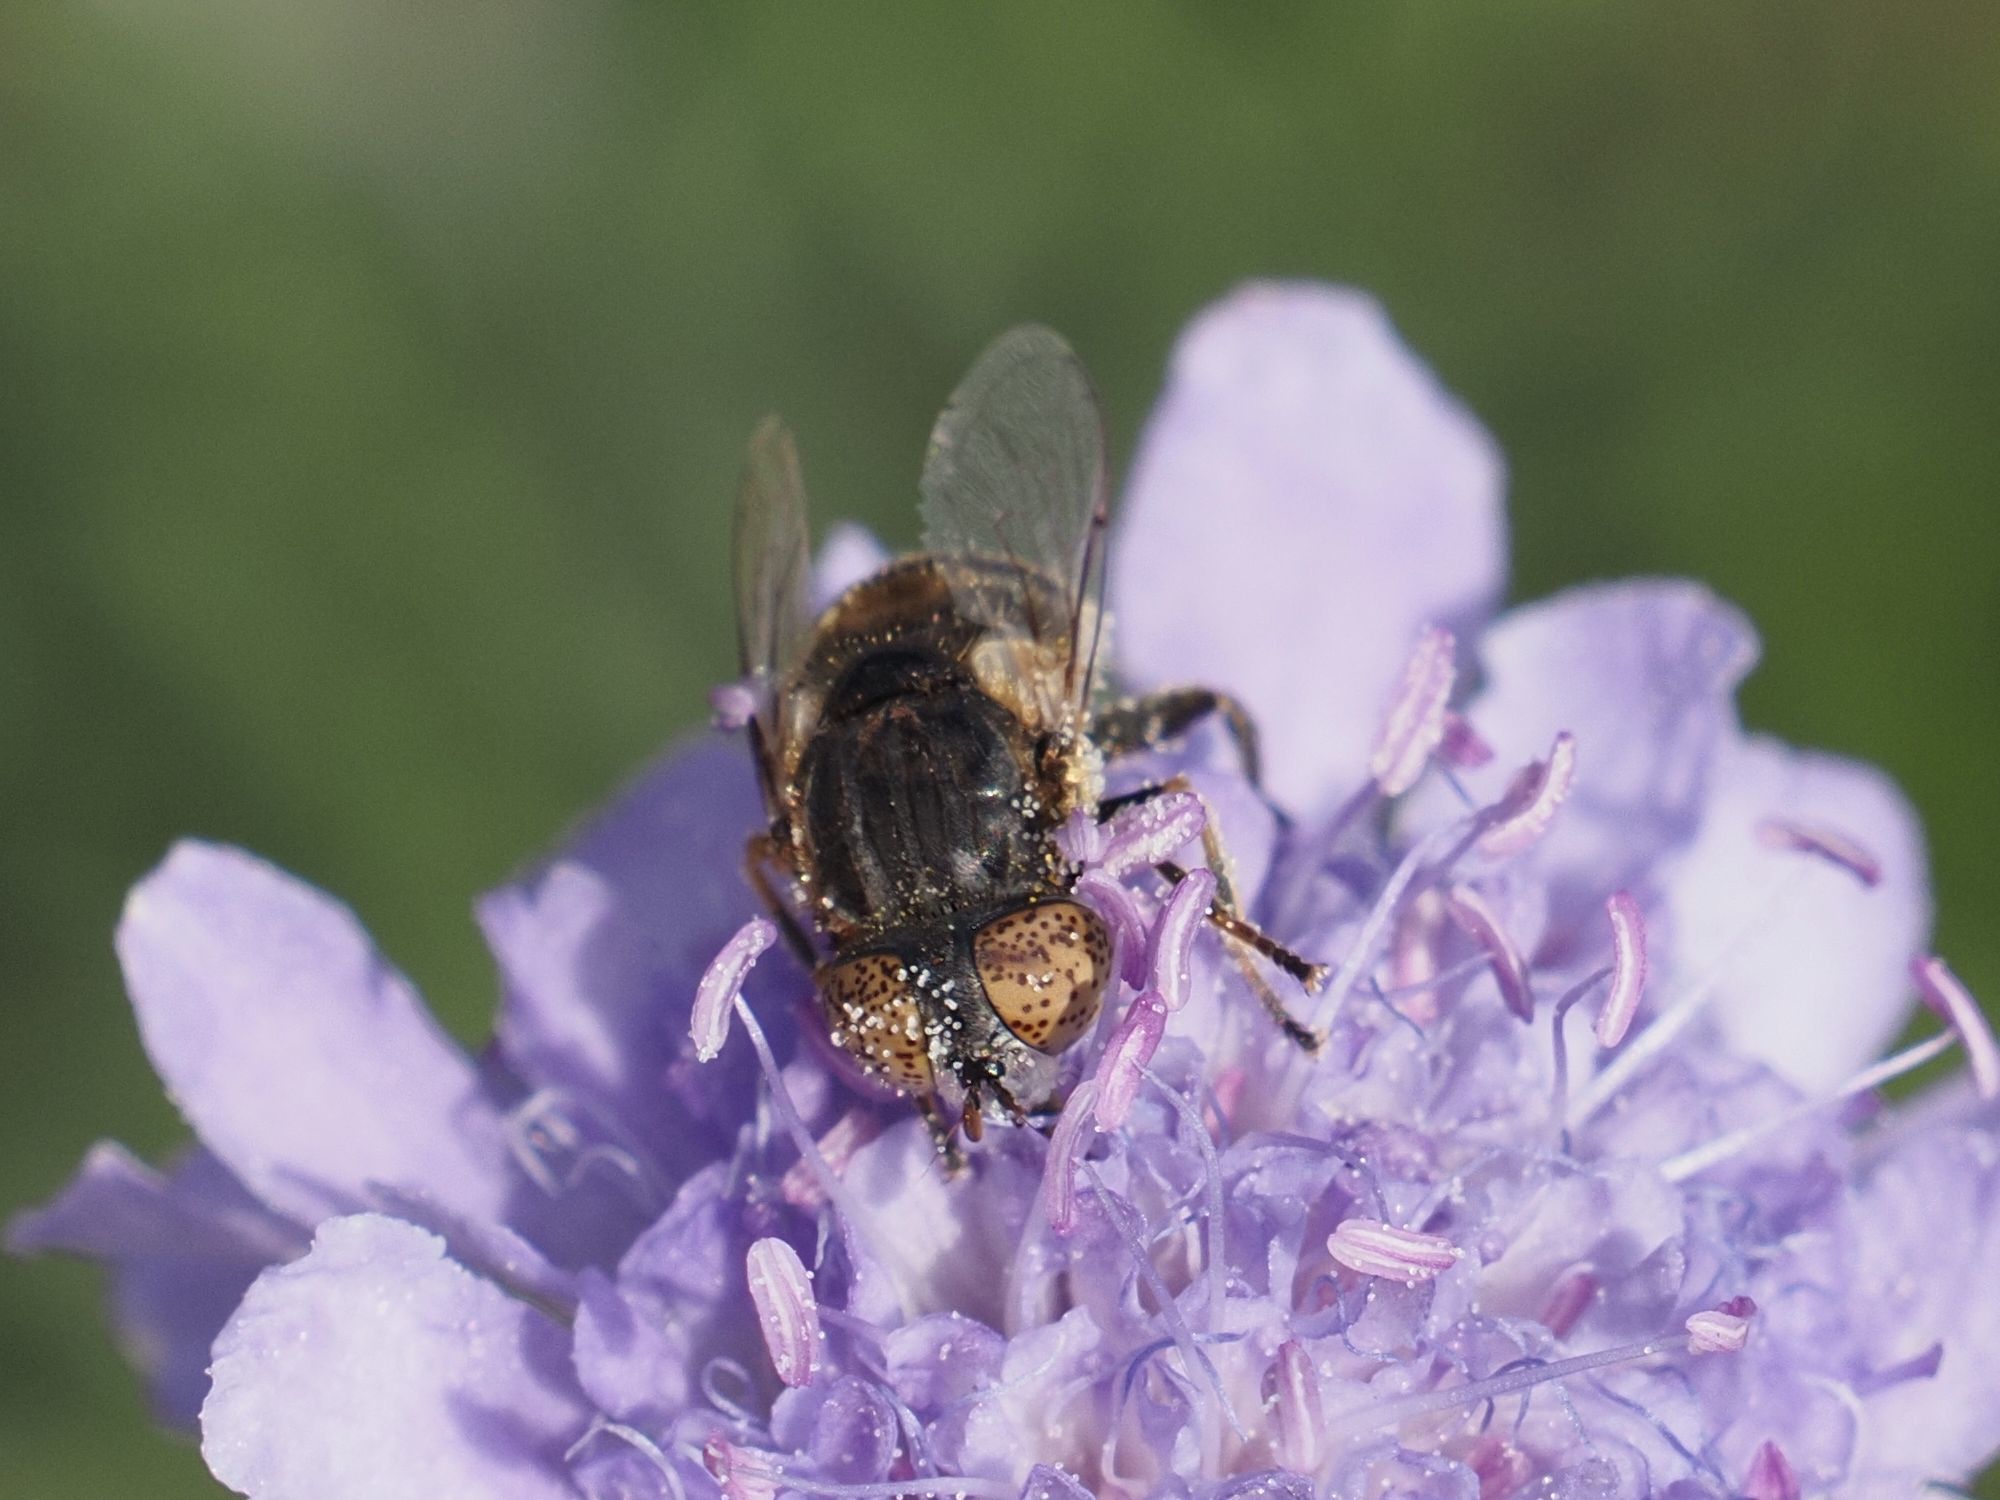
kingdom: Animalia
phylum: Arthropoda
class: Insecta
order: Diptera
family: Syrphidae
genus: Eristalinus
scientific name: Eristalinus sepulchralis
